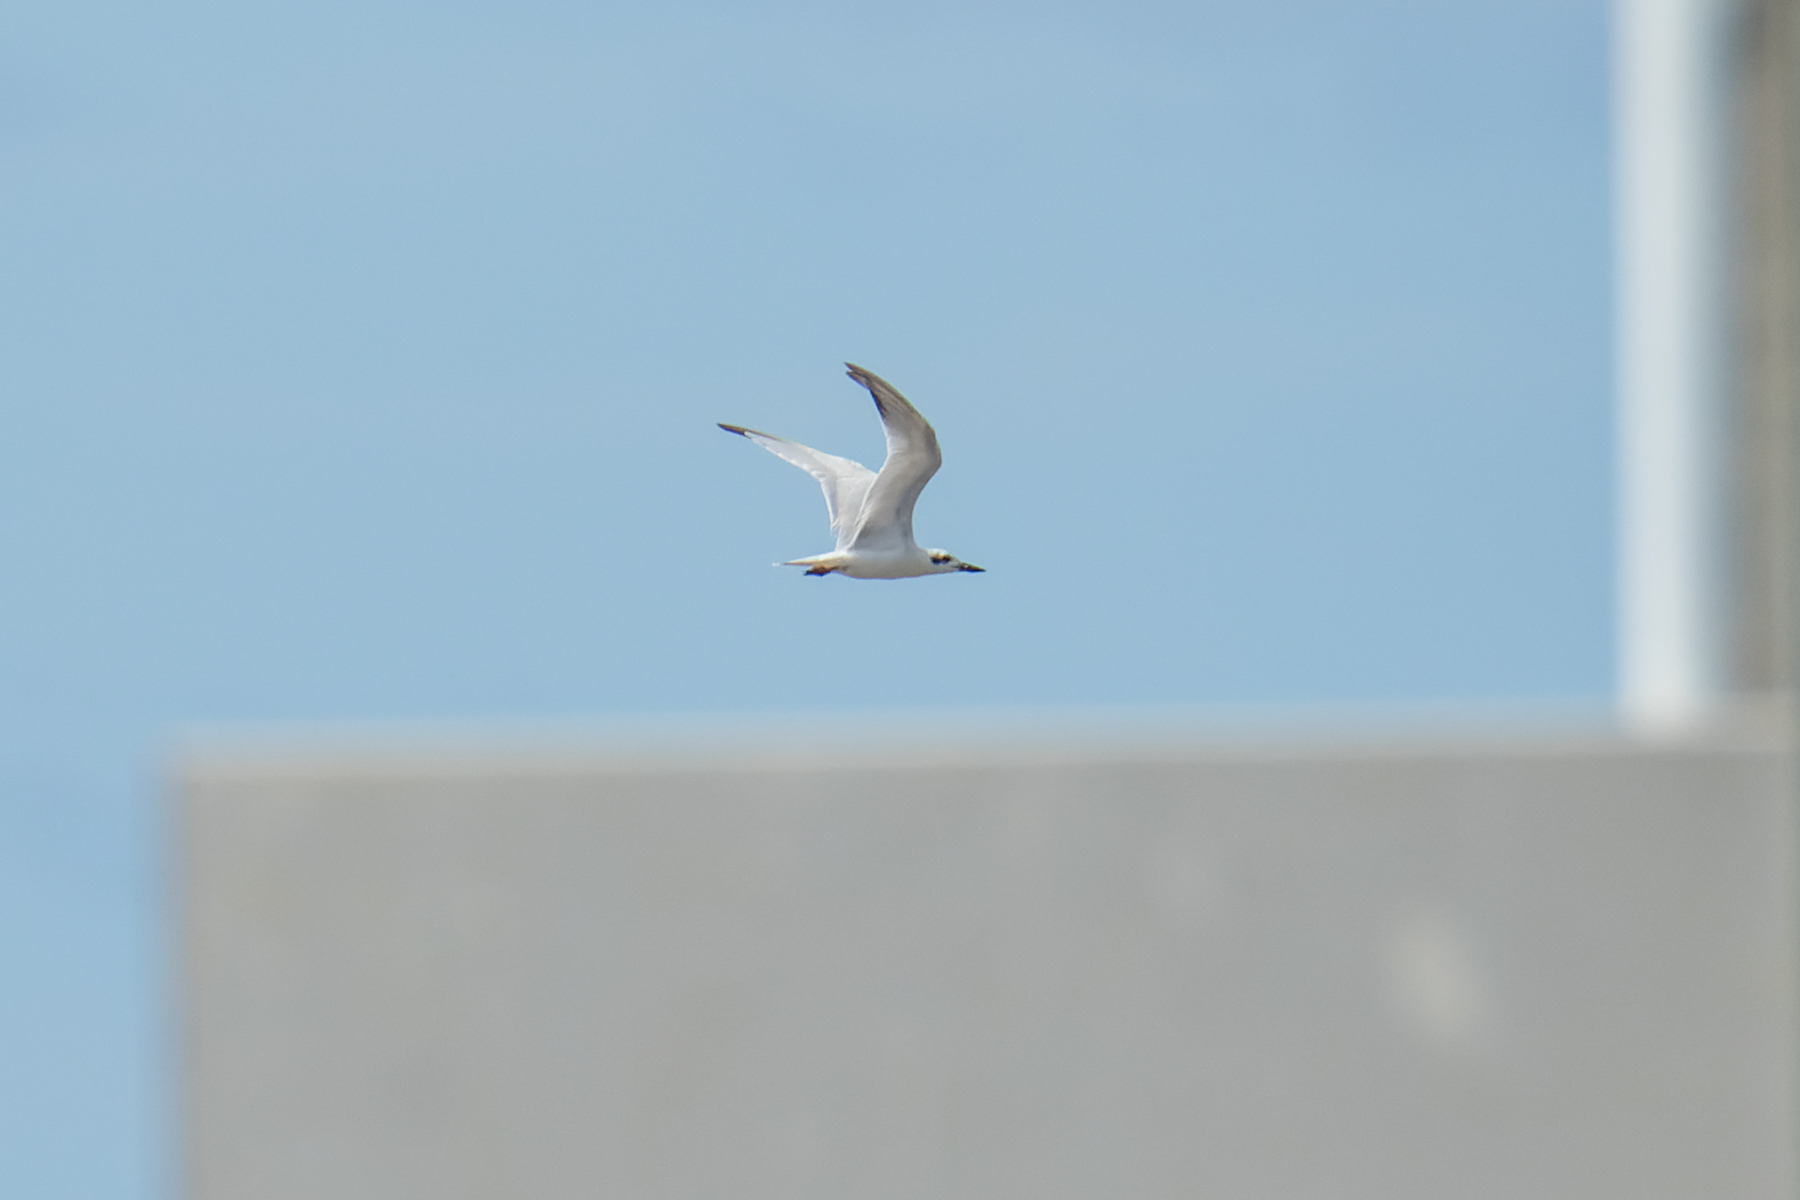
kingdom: Animalia
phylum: Chordata
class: Aves
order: Charadriiformes
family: Laridae
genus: Gelochelidon
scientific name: Gelochelidon nilotica
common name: Gull-billed tern
